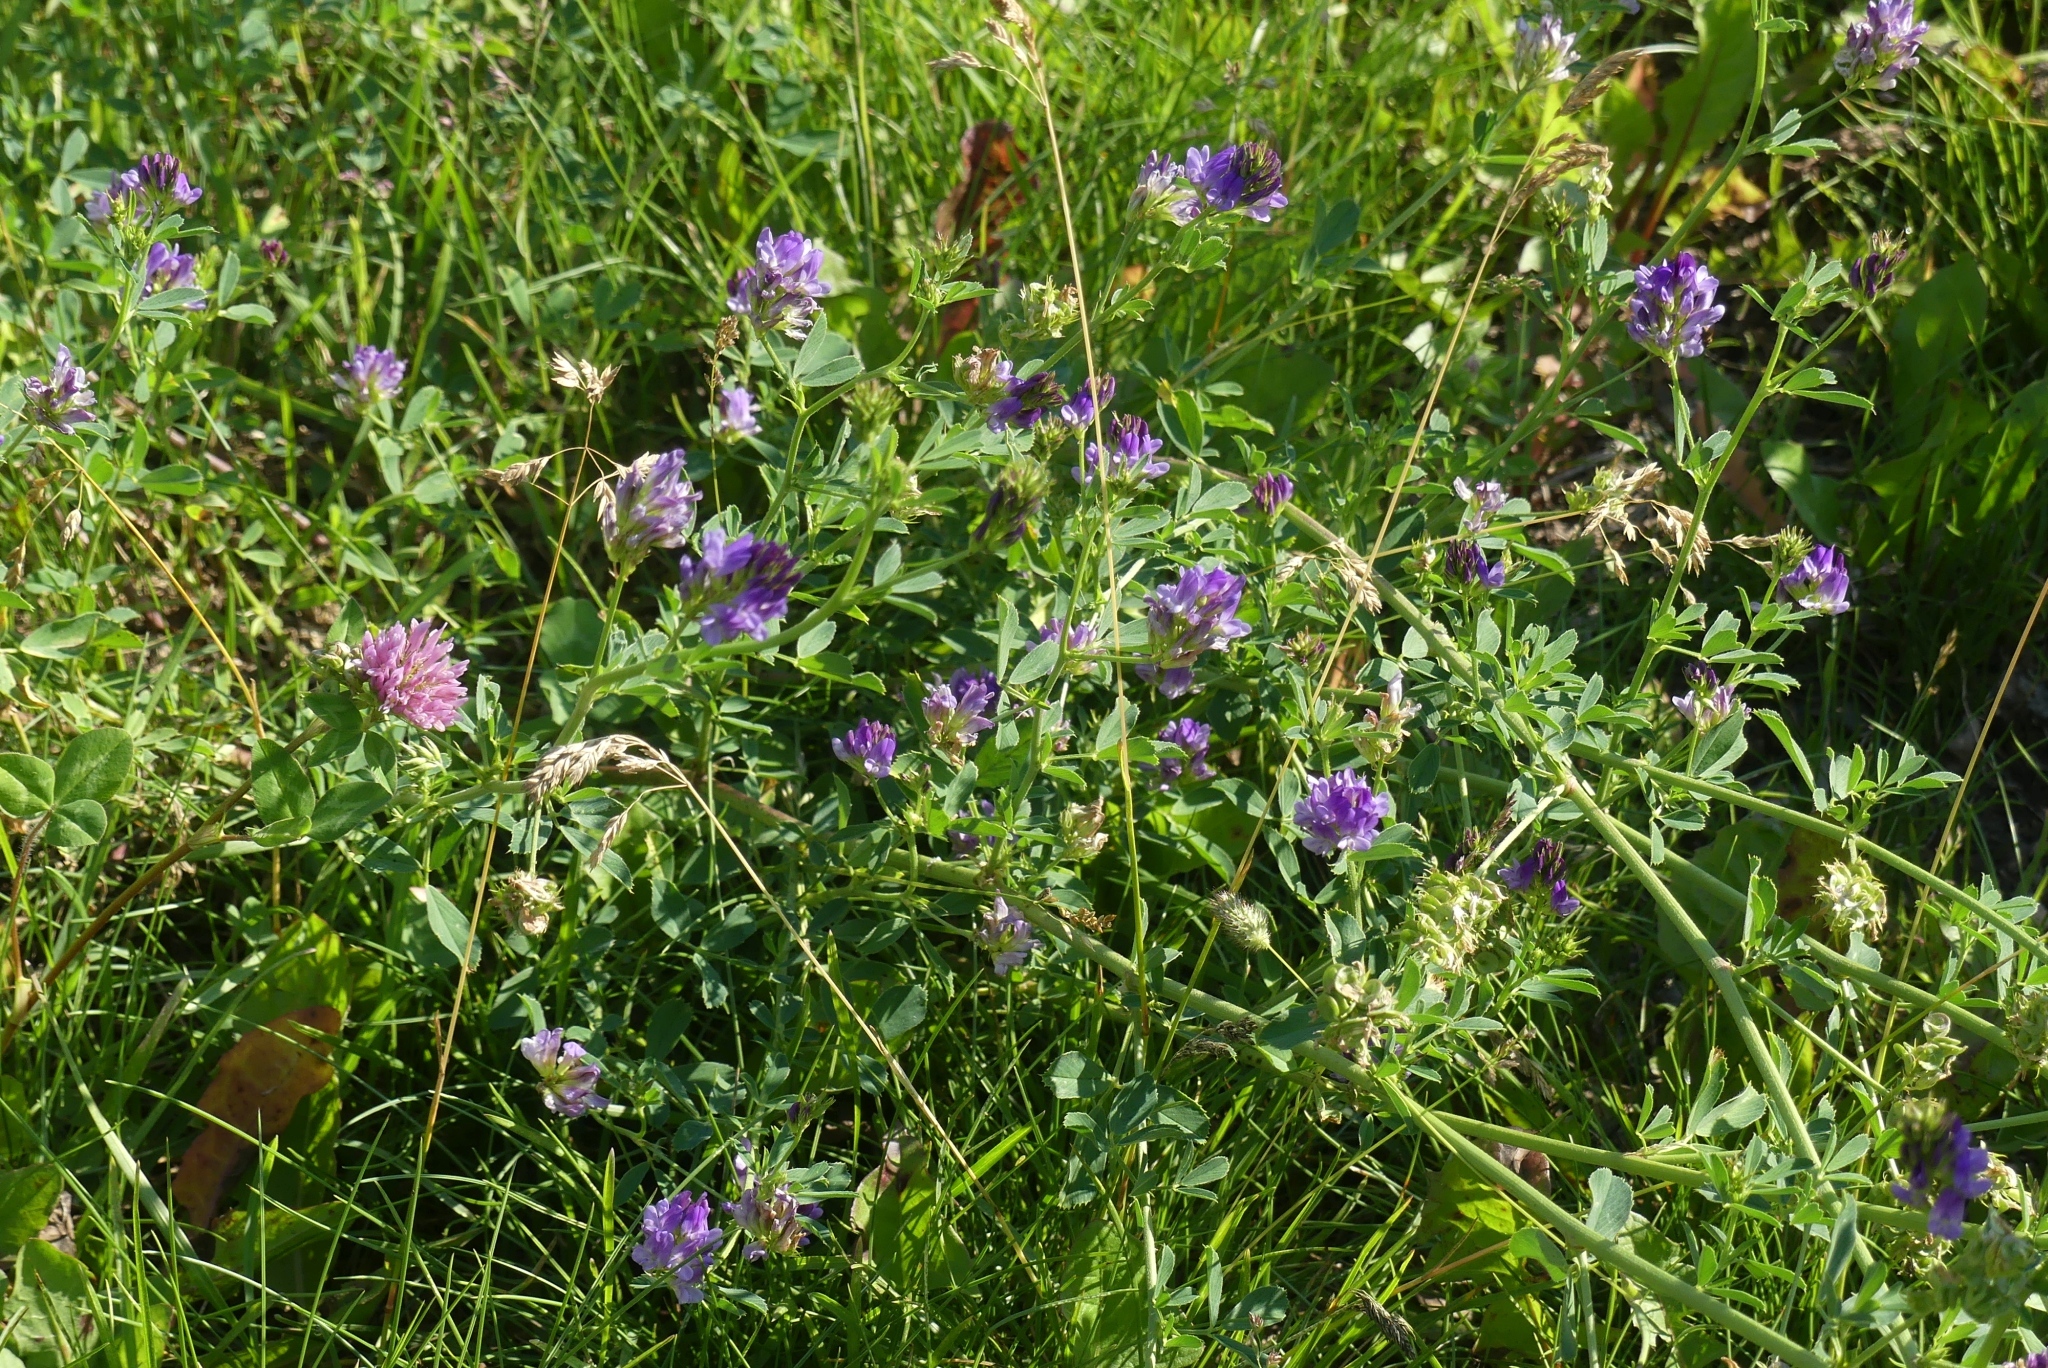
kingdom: Plantae
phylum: Tracheophyta
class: Magnoliopsida
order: Fabales
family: Fabaceae
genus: Medicago
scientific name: Medicago sativa
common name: Alfalfa
